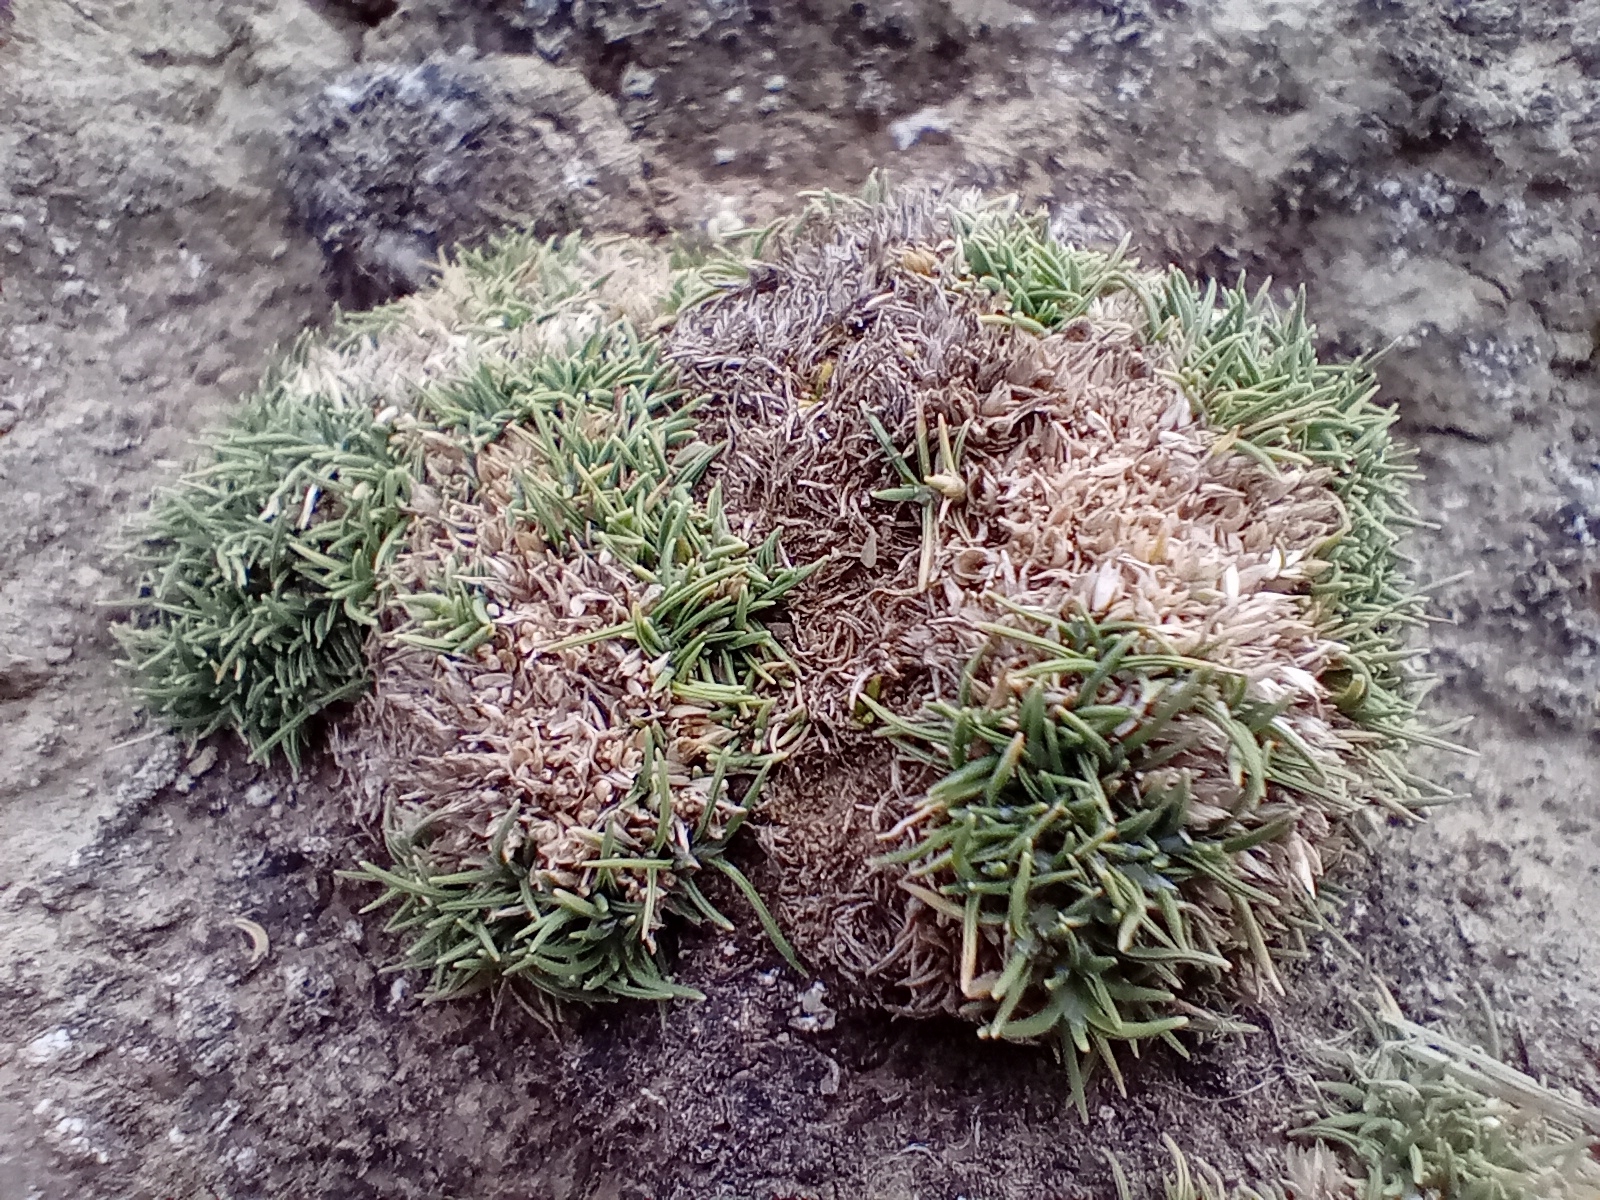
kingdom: Plantae
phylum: Tracheophyta
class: Liliopsida
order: Poales
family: Poaceae
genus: Agrostis
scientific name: Agrostis muscosa
